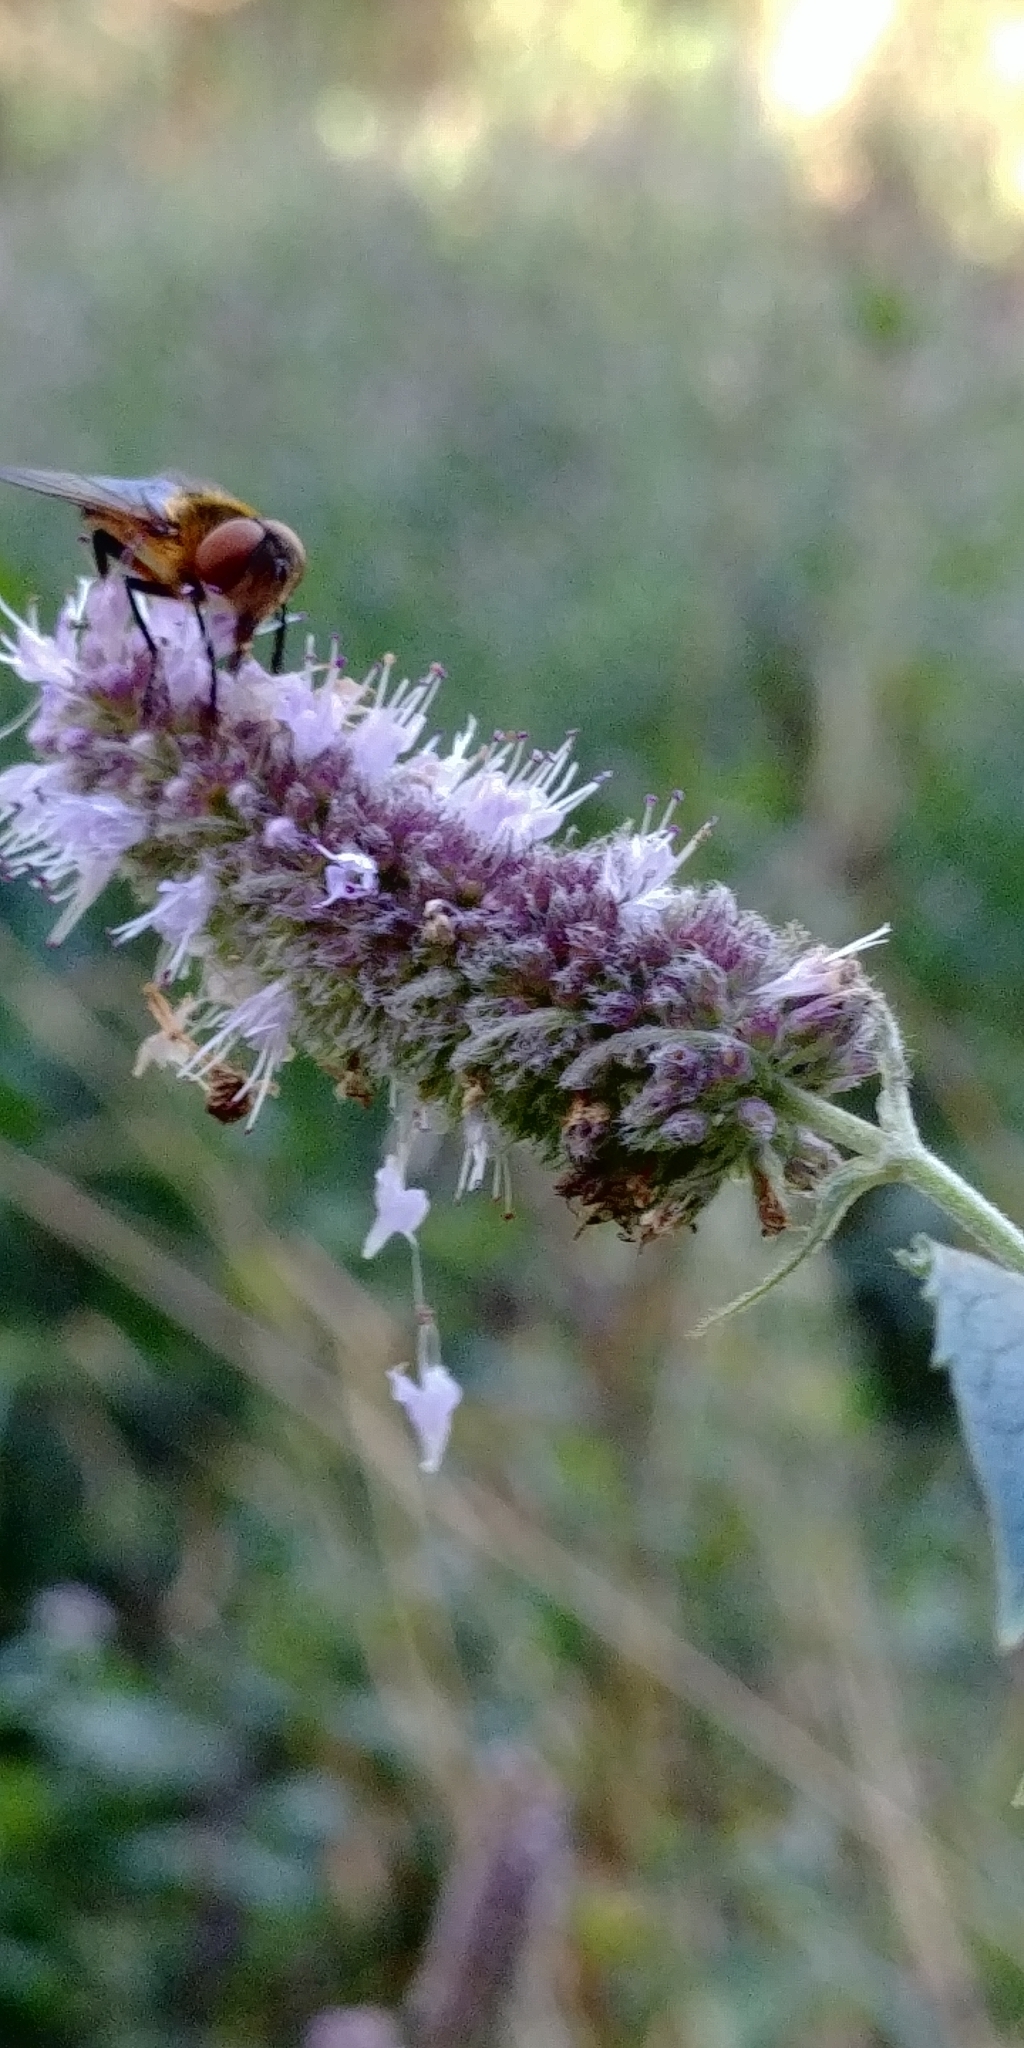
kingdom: Plantae
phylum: Tracheophyta
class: Magnoliopsida
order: Lamiales
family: Lamiaceae
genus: Mentha
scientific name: Mentha longifolia
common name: Horse mint
